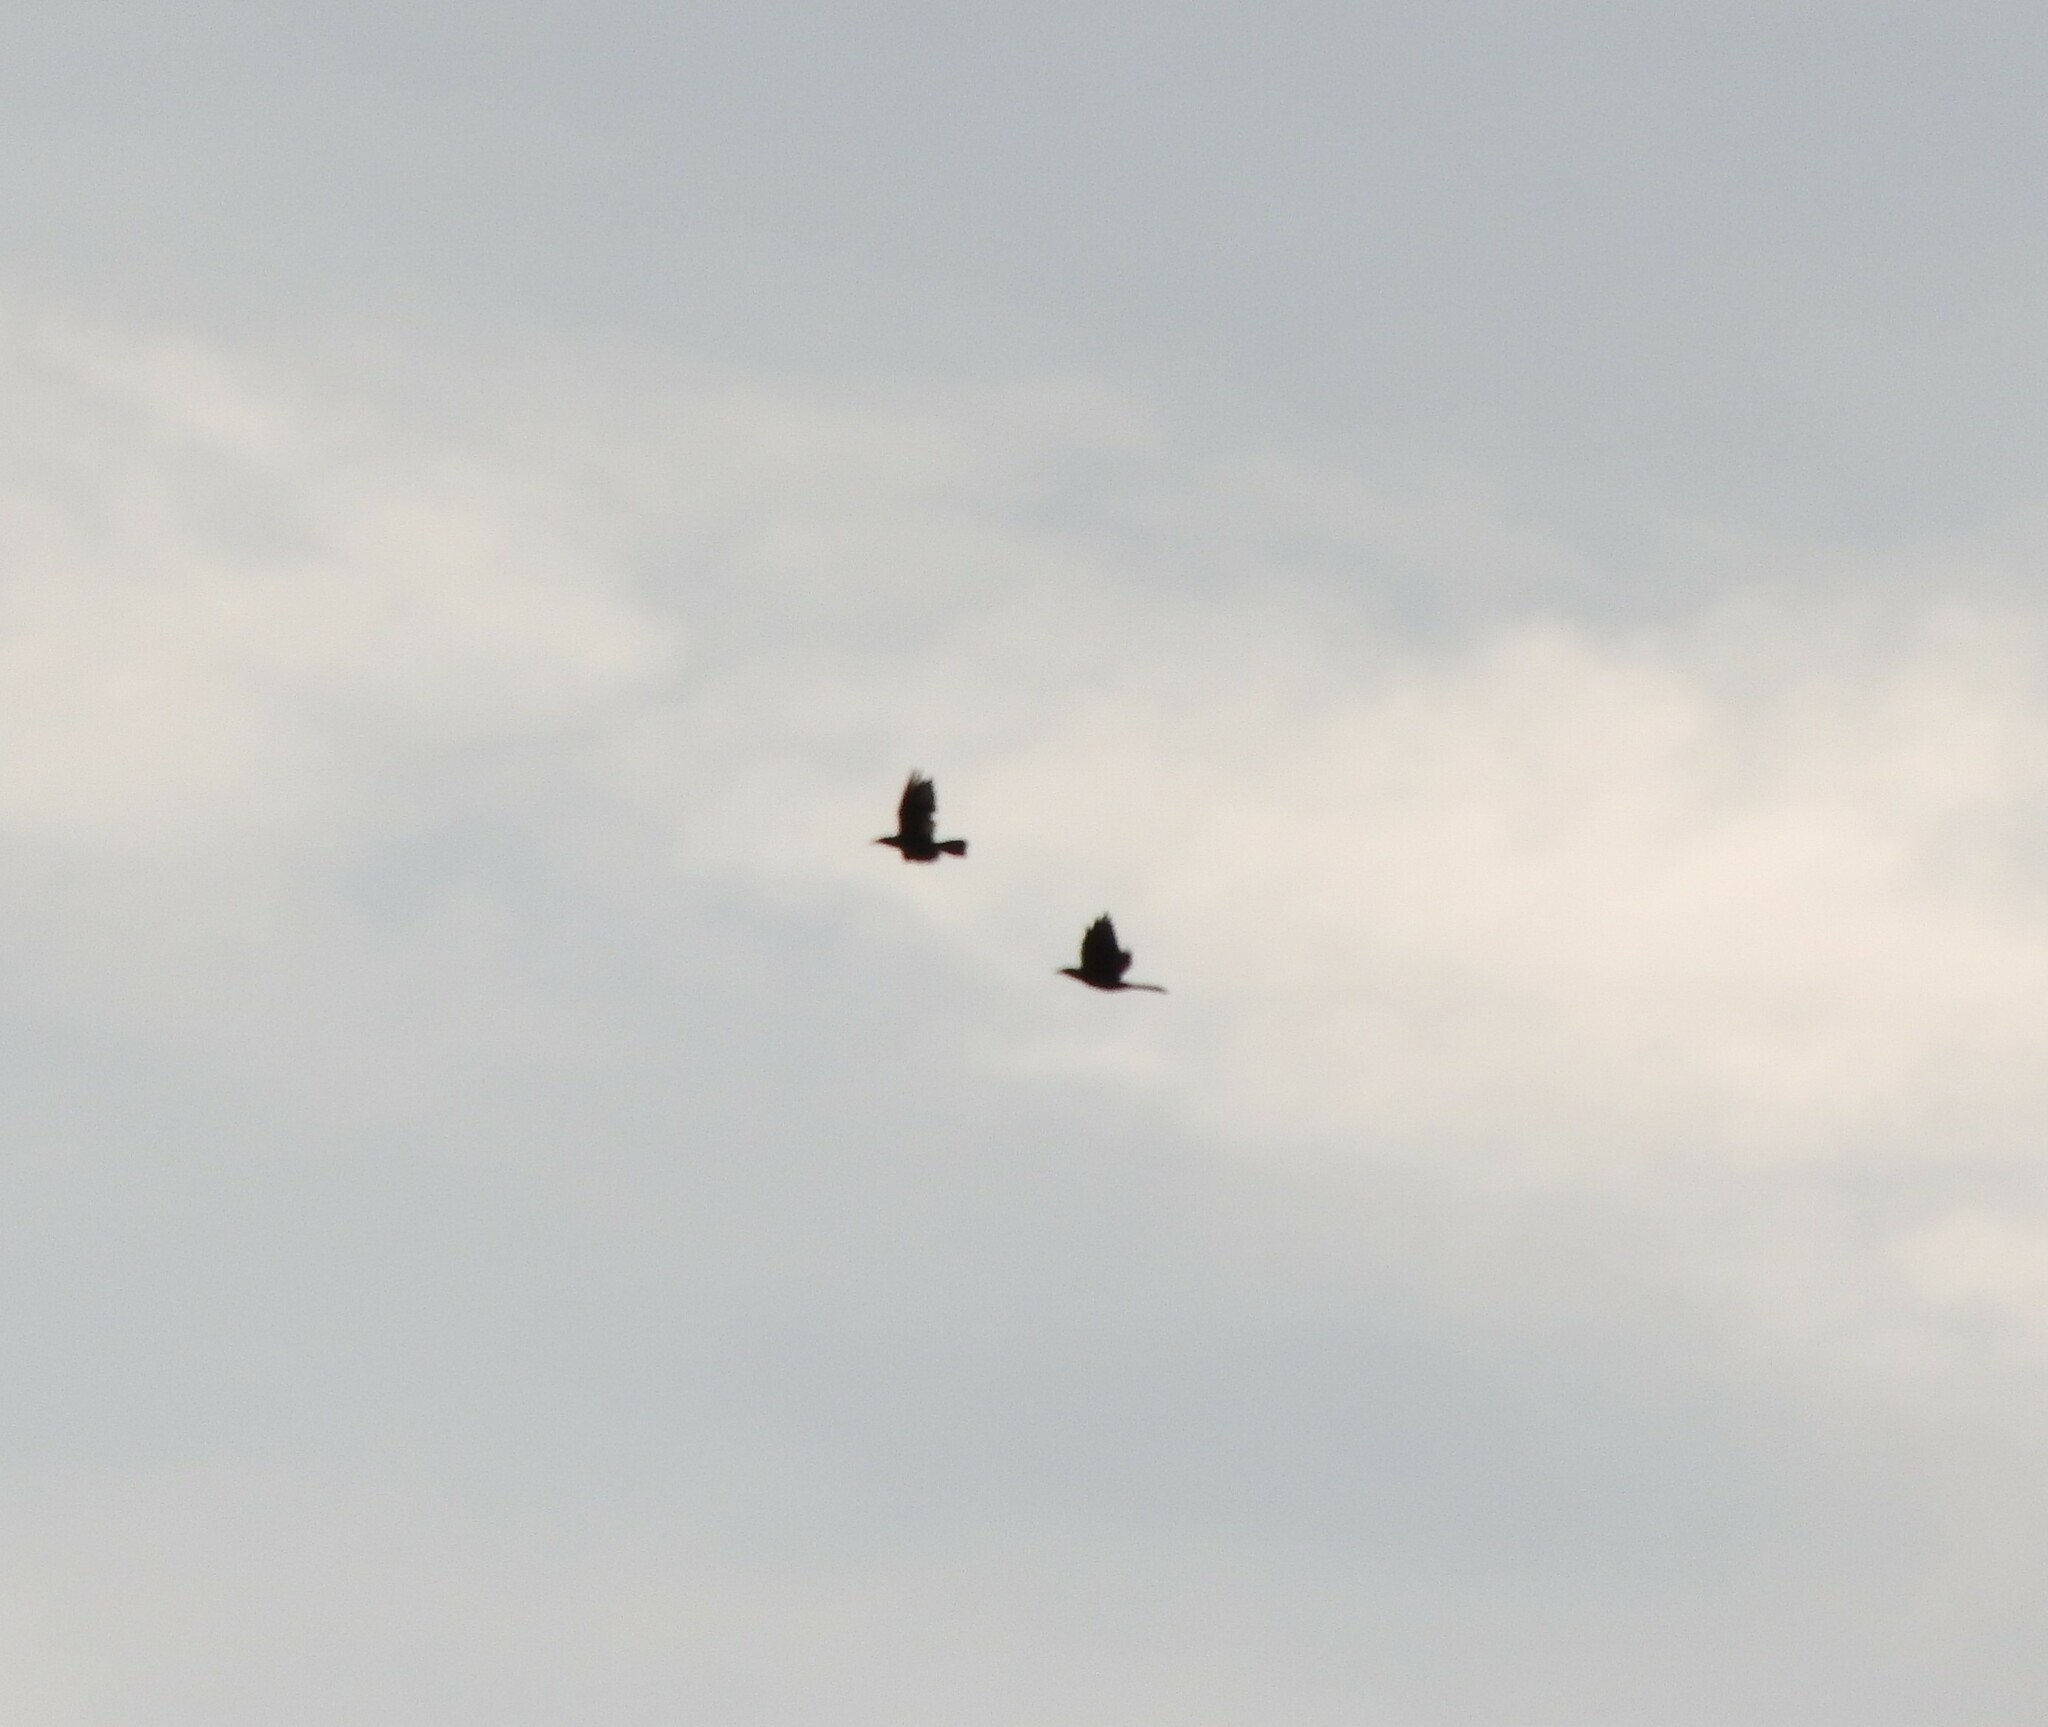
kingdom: Animalia
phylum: Chordata
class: Aves
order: Passeriformes
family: Icteridae
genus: Quiscalus
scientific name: Quiscalus mexicanus
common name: Great-tailed grackle
